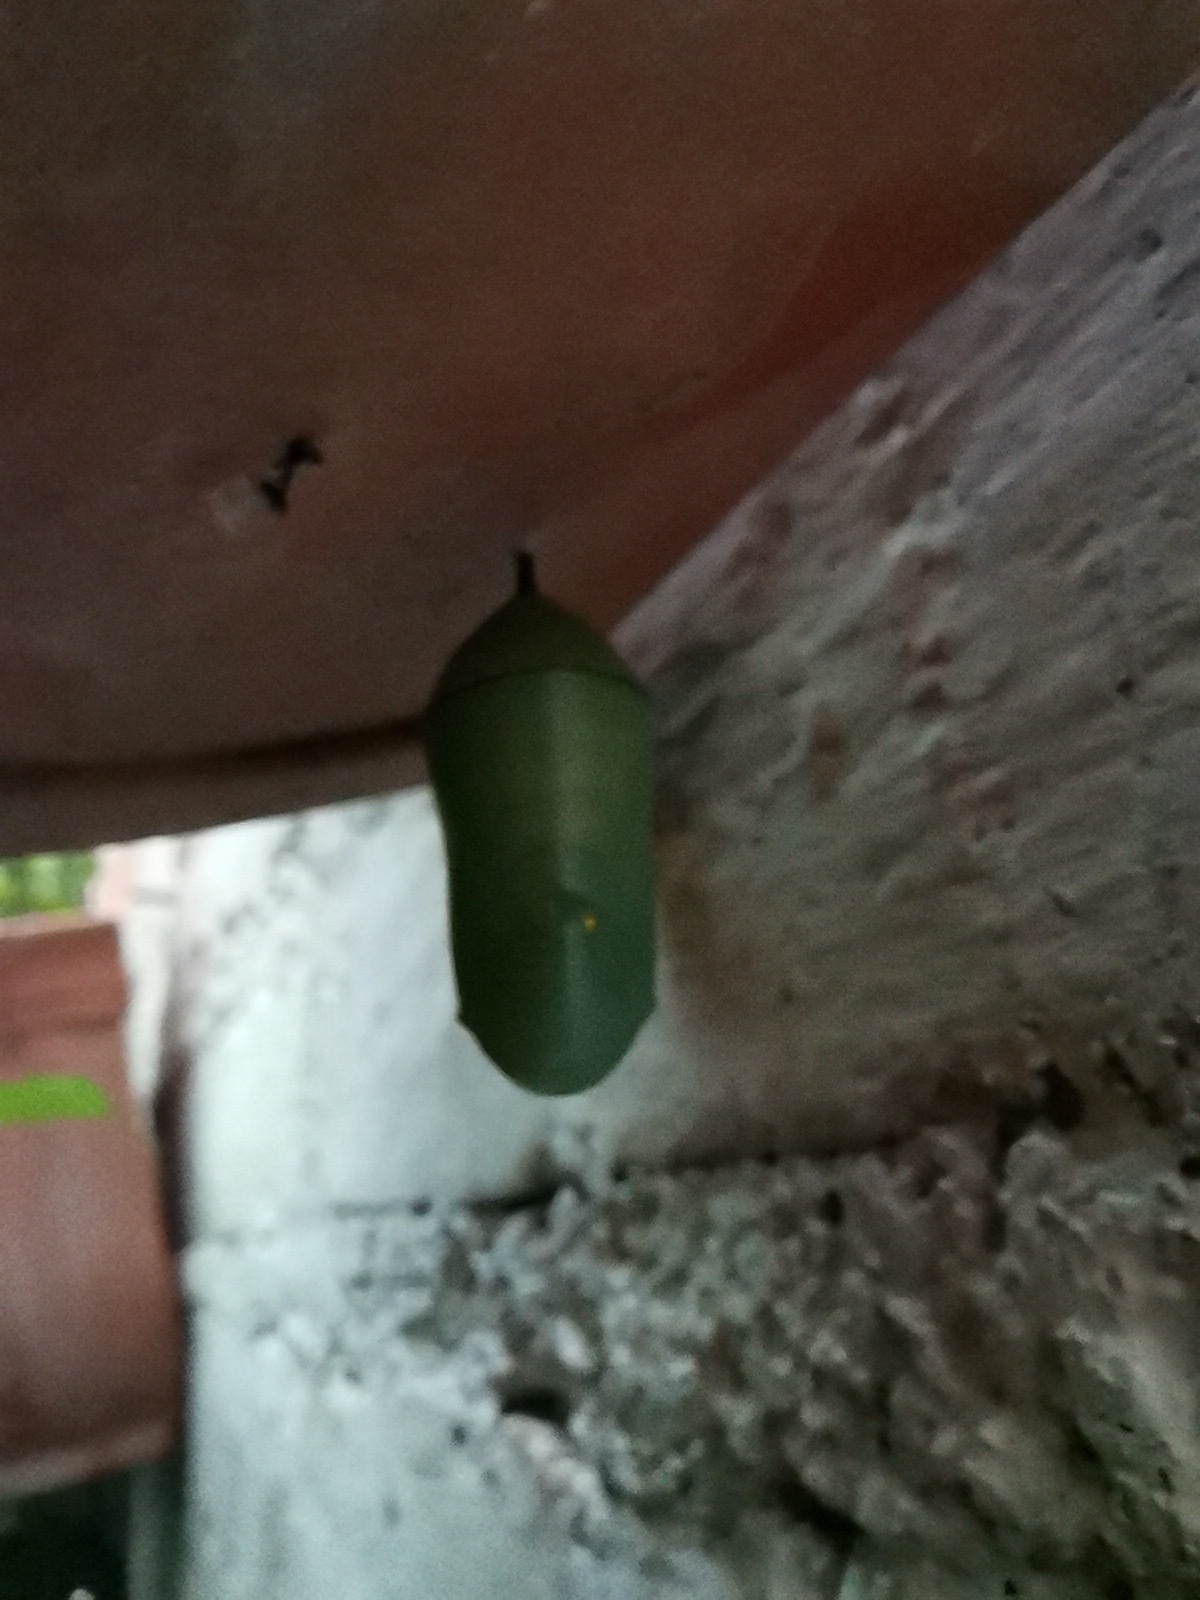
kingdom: Animalia
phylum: Arthropoda
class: Insecta
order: Lepidoptera
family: Nymphalidae
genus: Danaus
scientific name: Danaus plexippus
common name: Monarch
